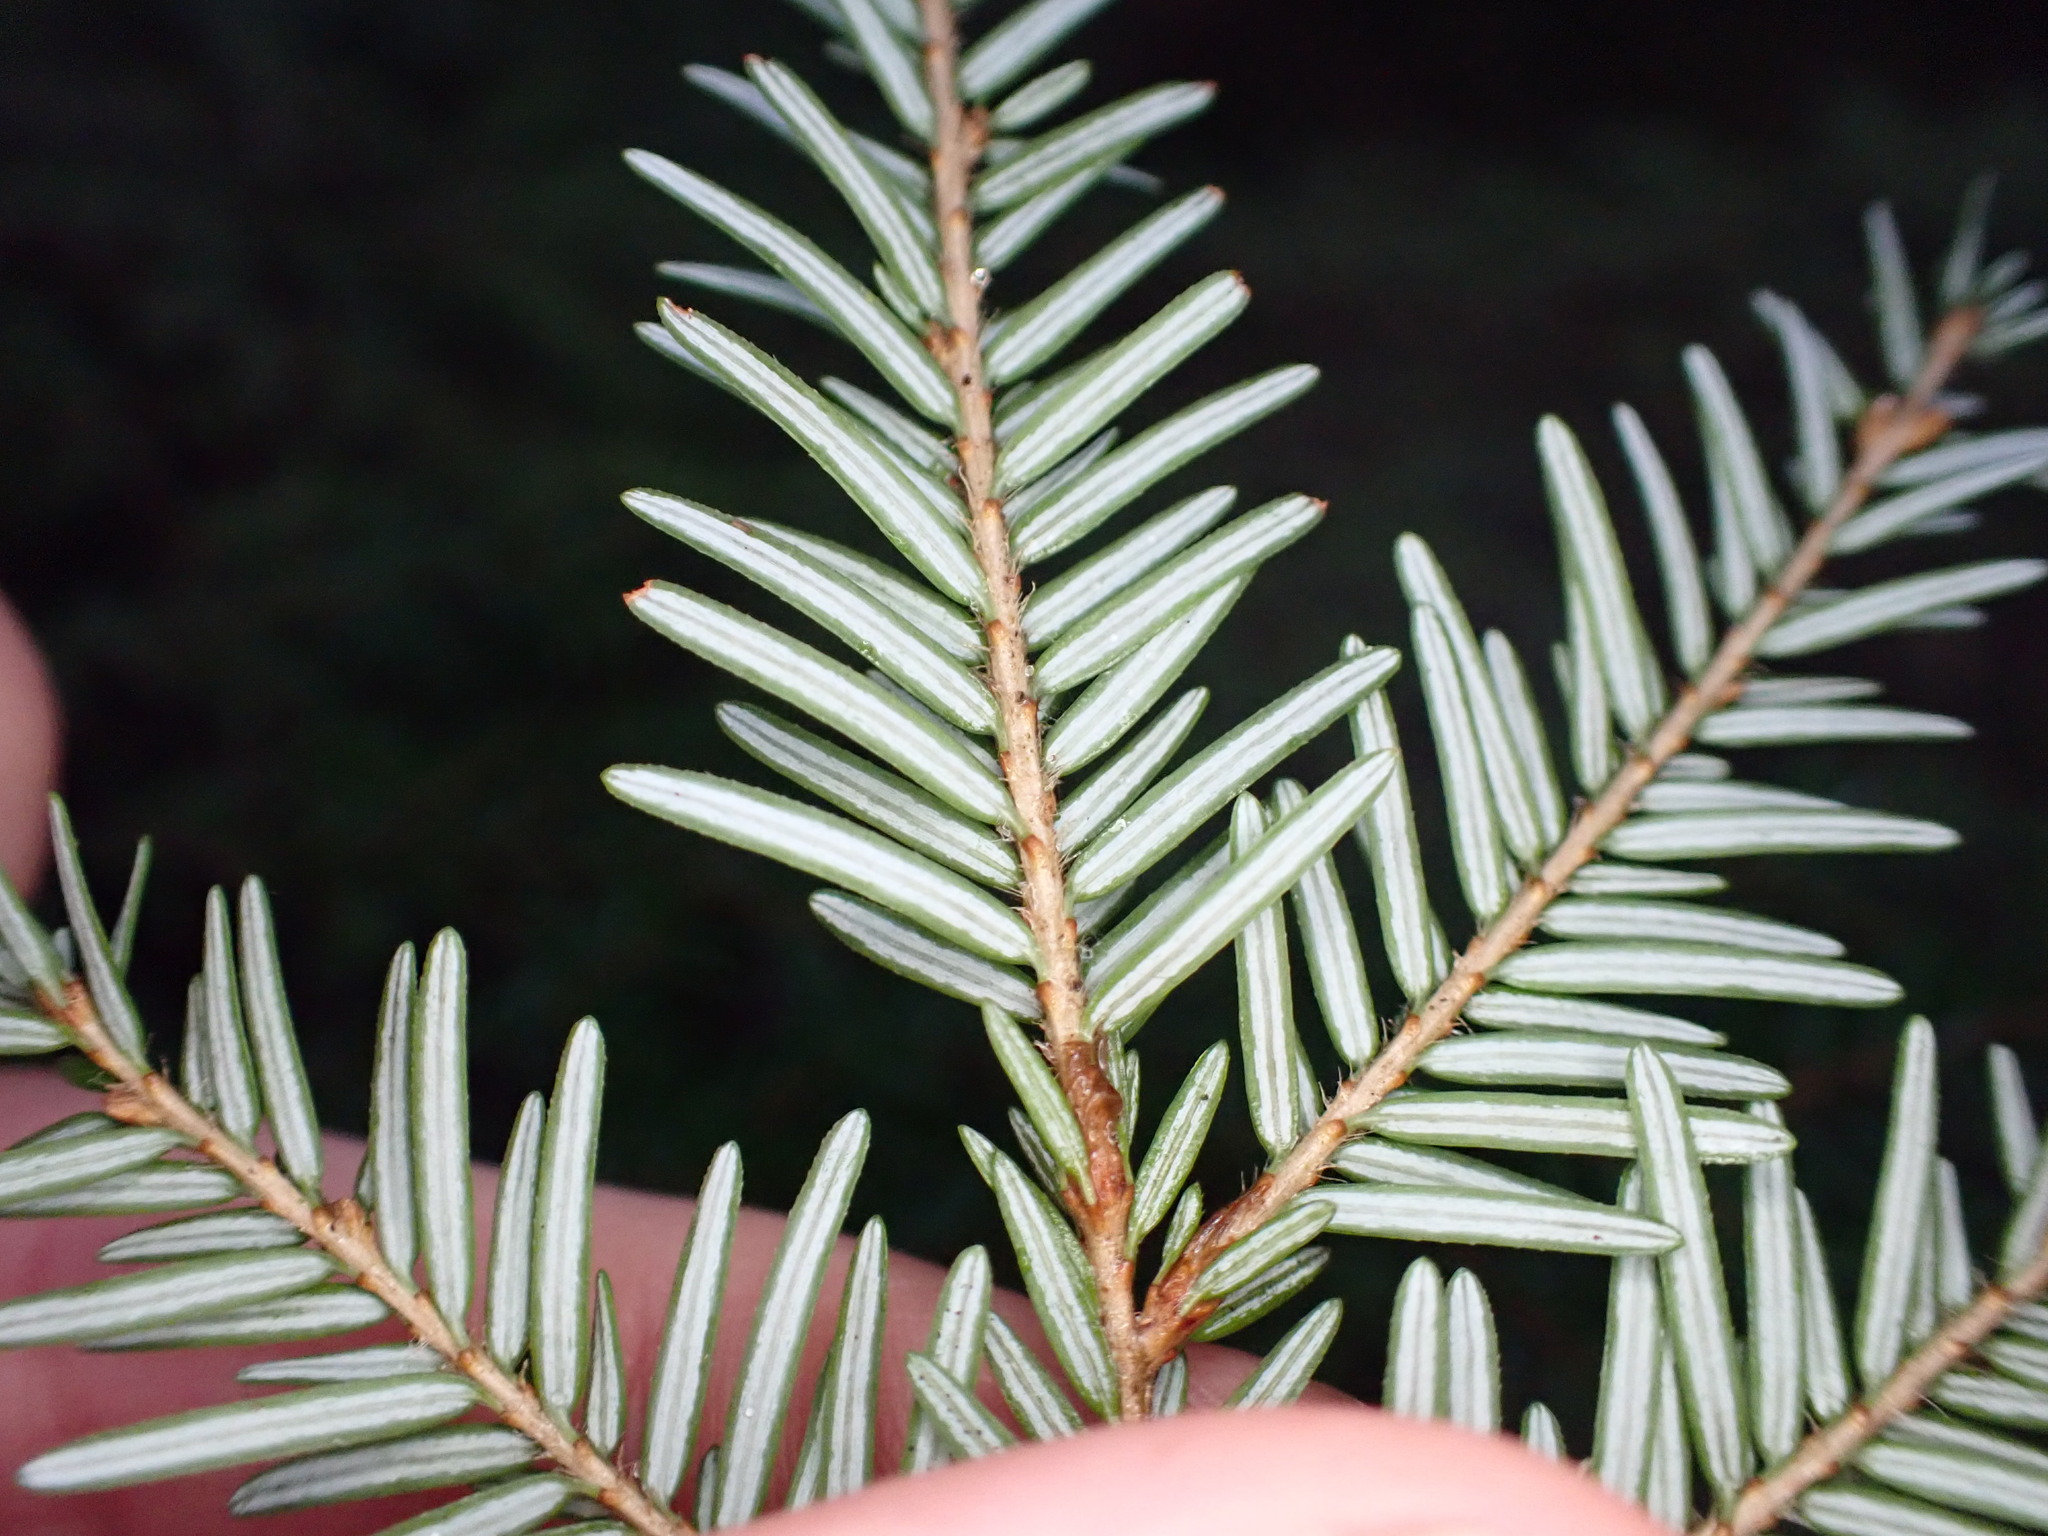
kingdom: Plantae
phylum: Tracheophyta
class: Pinopsida
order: Pinales
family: Pinaceae
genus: Tsuga
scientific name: Tsuga heterophylla
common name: Western hemlock
